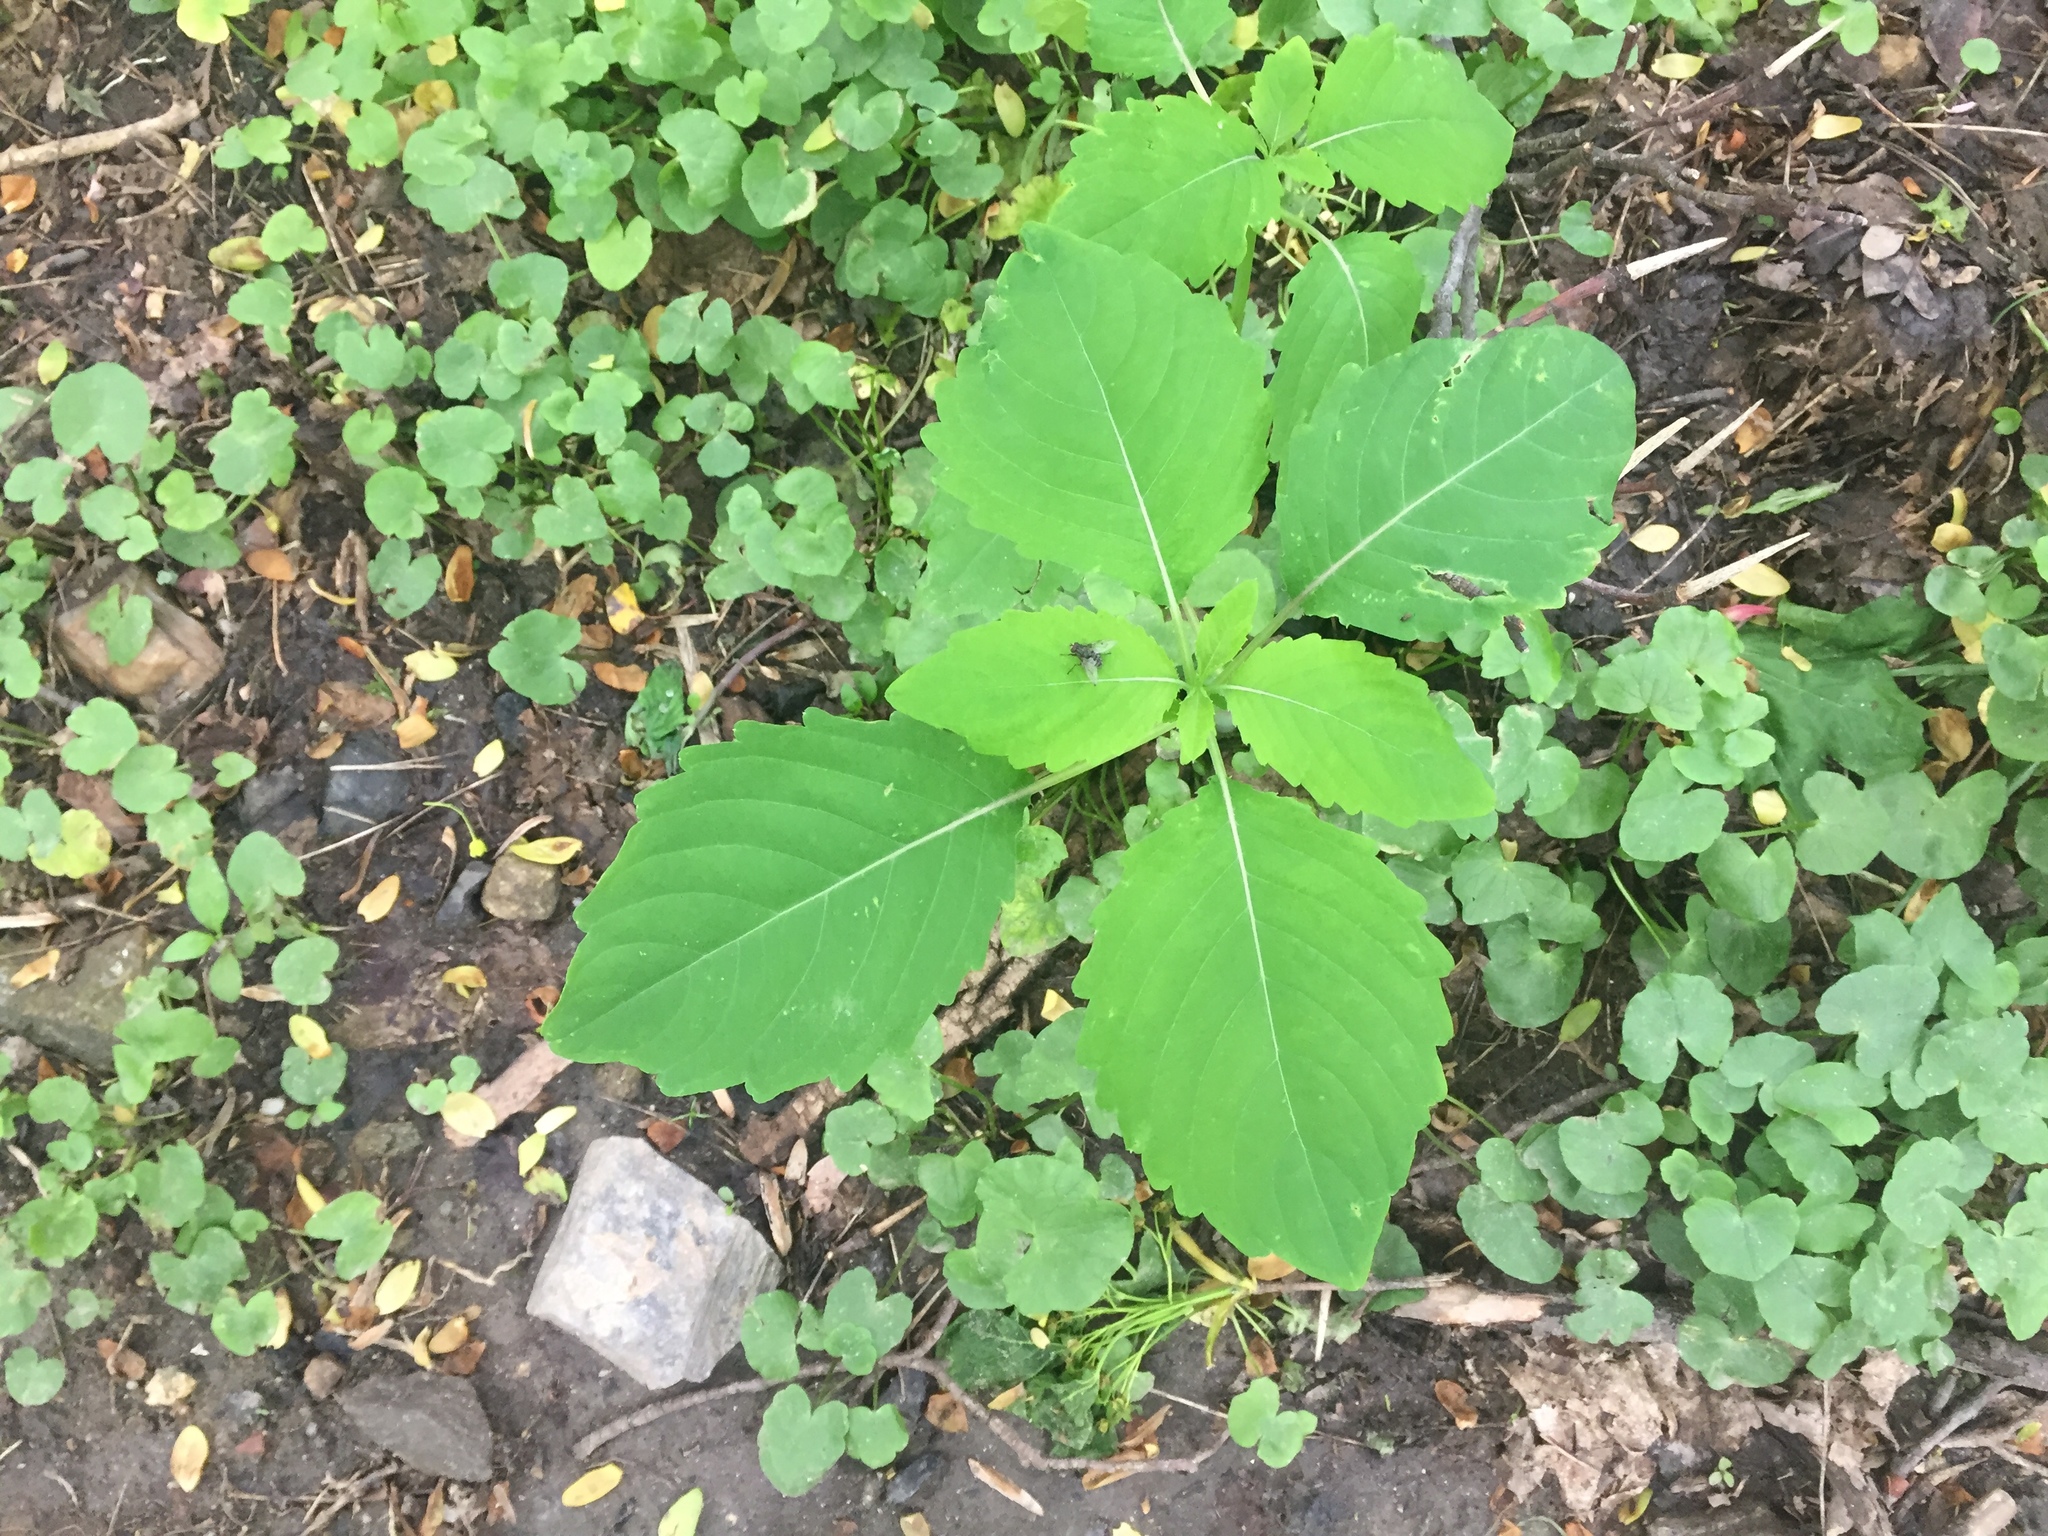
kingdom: Plantae
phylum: Tracheophyta
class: Magnoliopsida
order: Ericales
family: Balsaminaceae
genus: Impatiens
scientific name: Impatiens capensis
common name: Orange balsam
